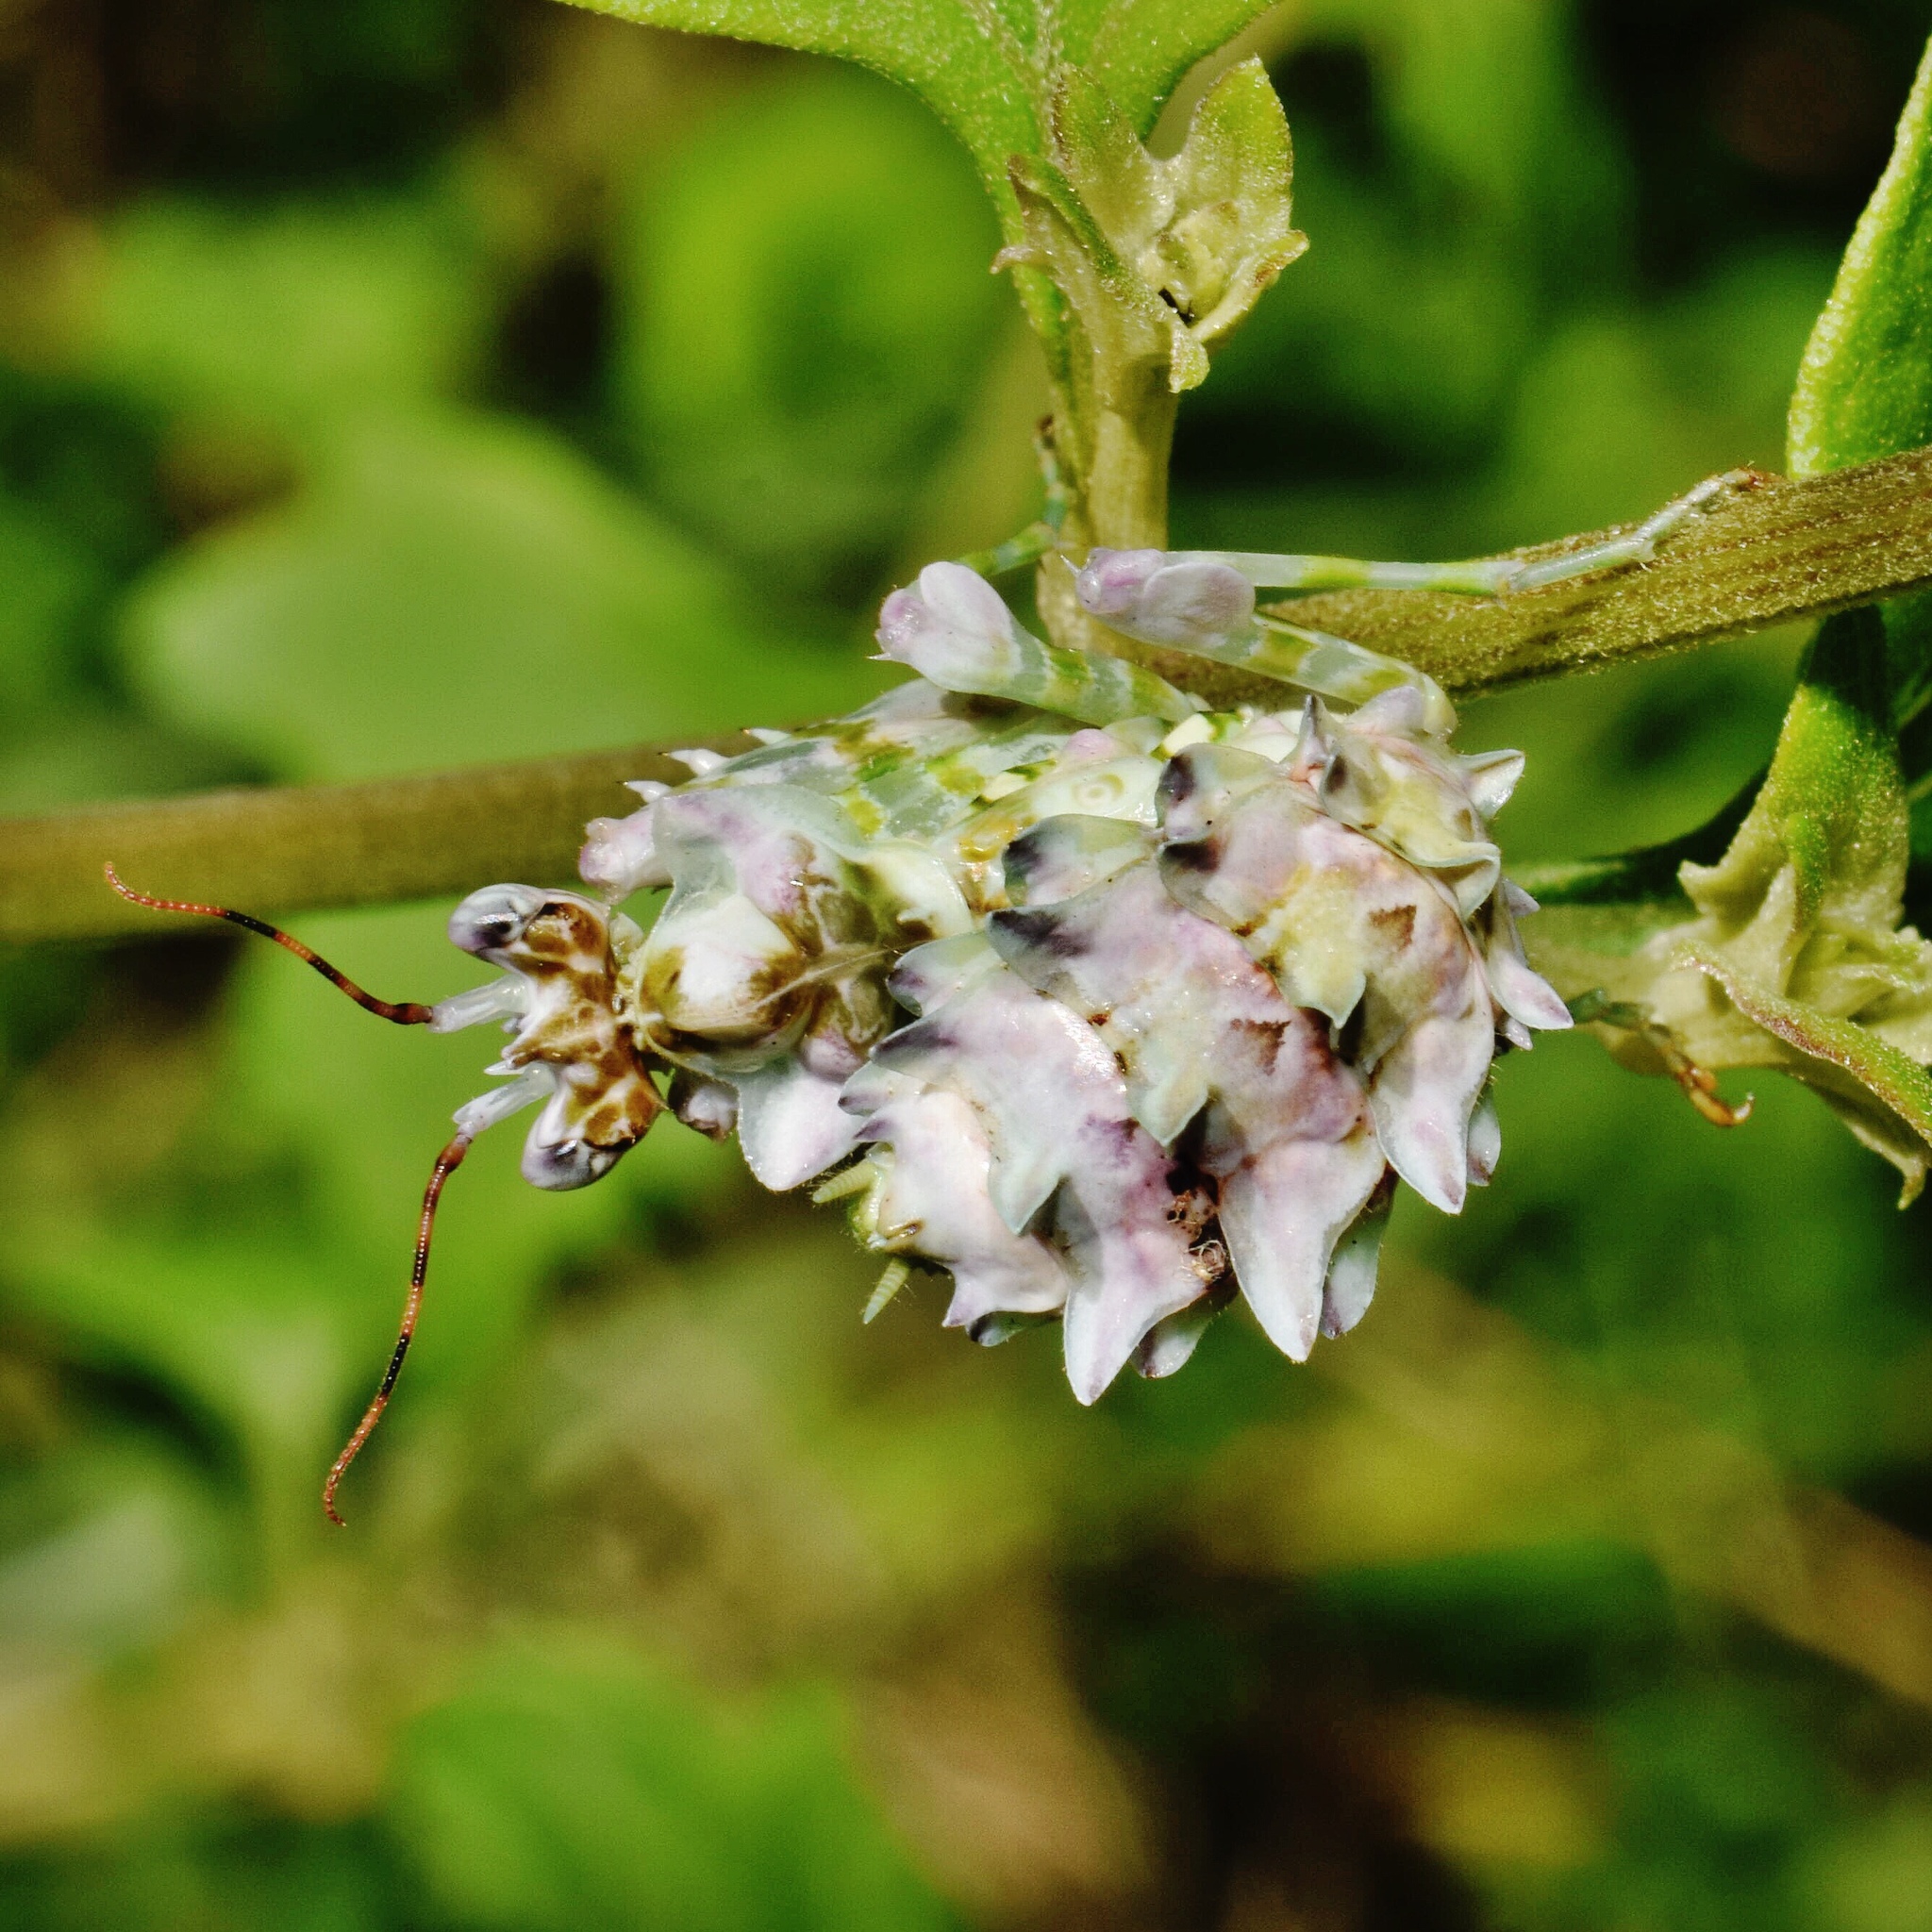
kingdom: Animalia
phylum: Arthropoda
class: Insecta
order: Mantodea
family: Hymenopodidae
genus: Pseudocreobotra
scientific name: Pseudocreobotra wahlbergi
